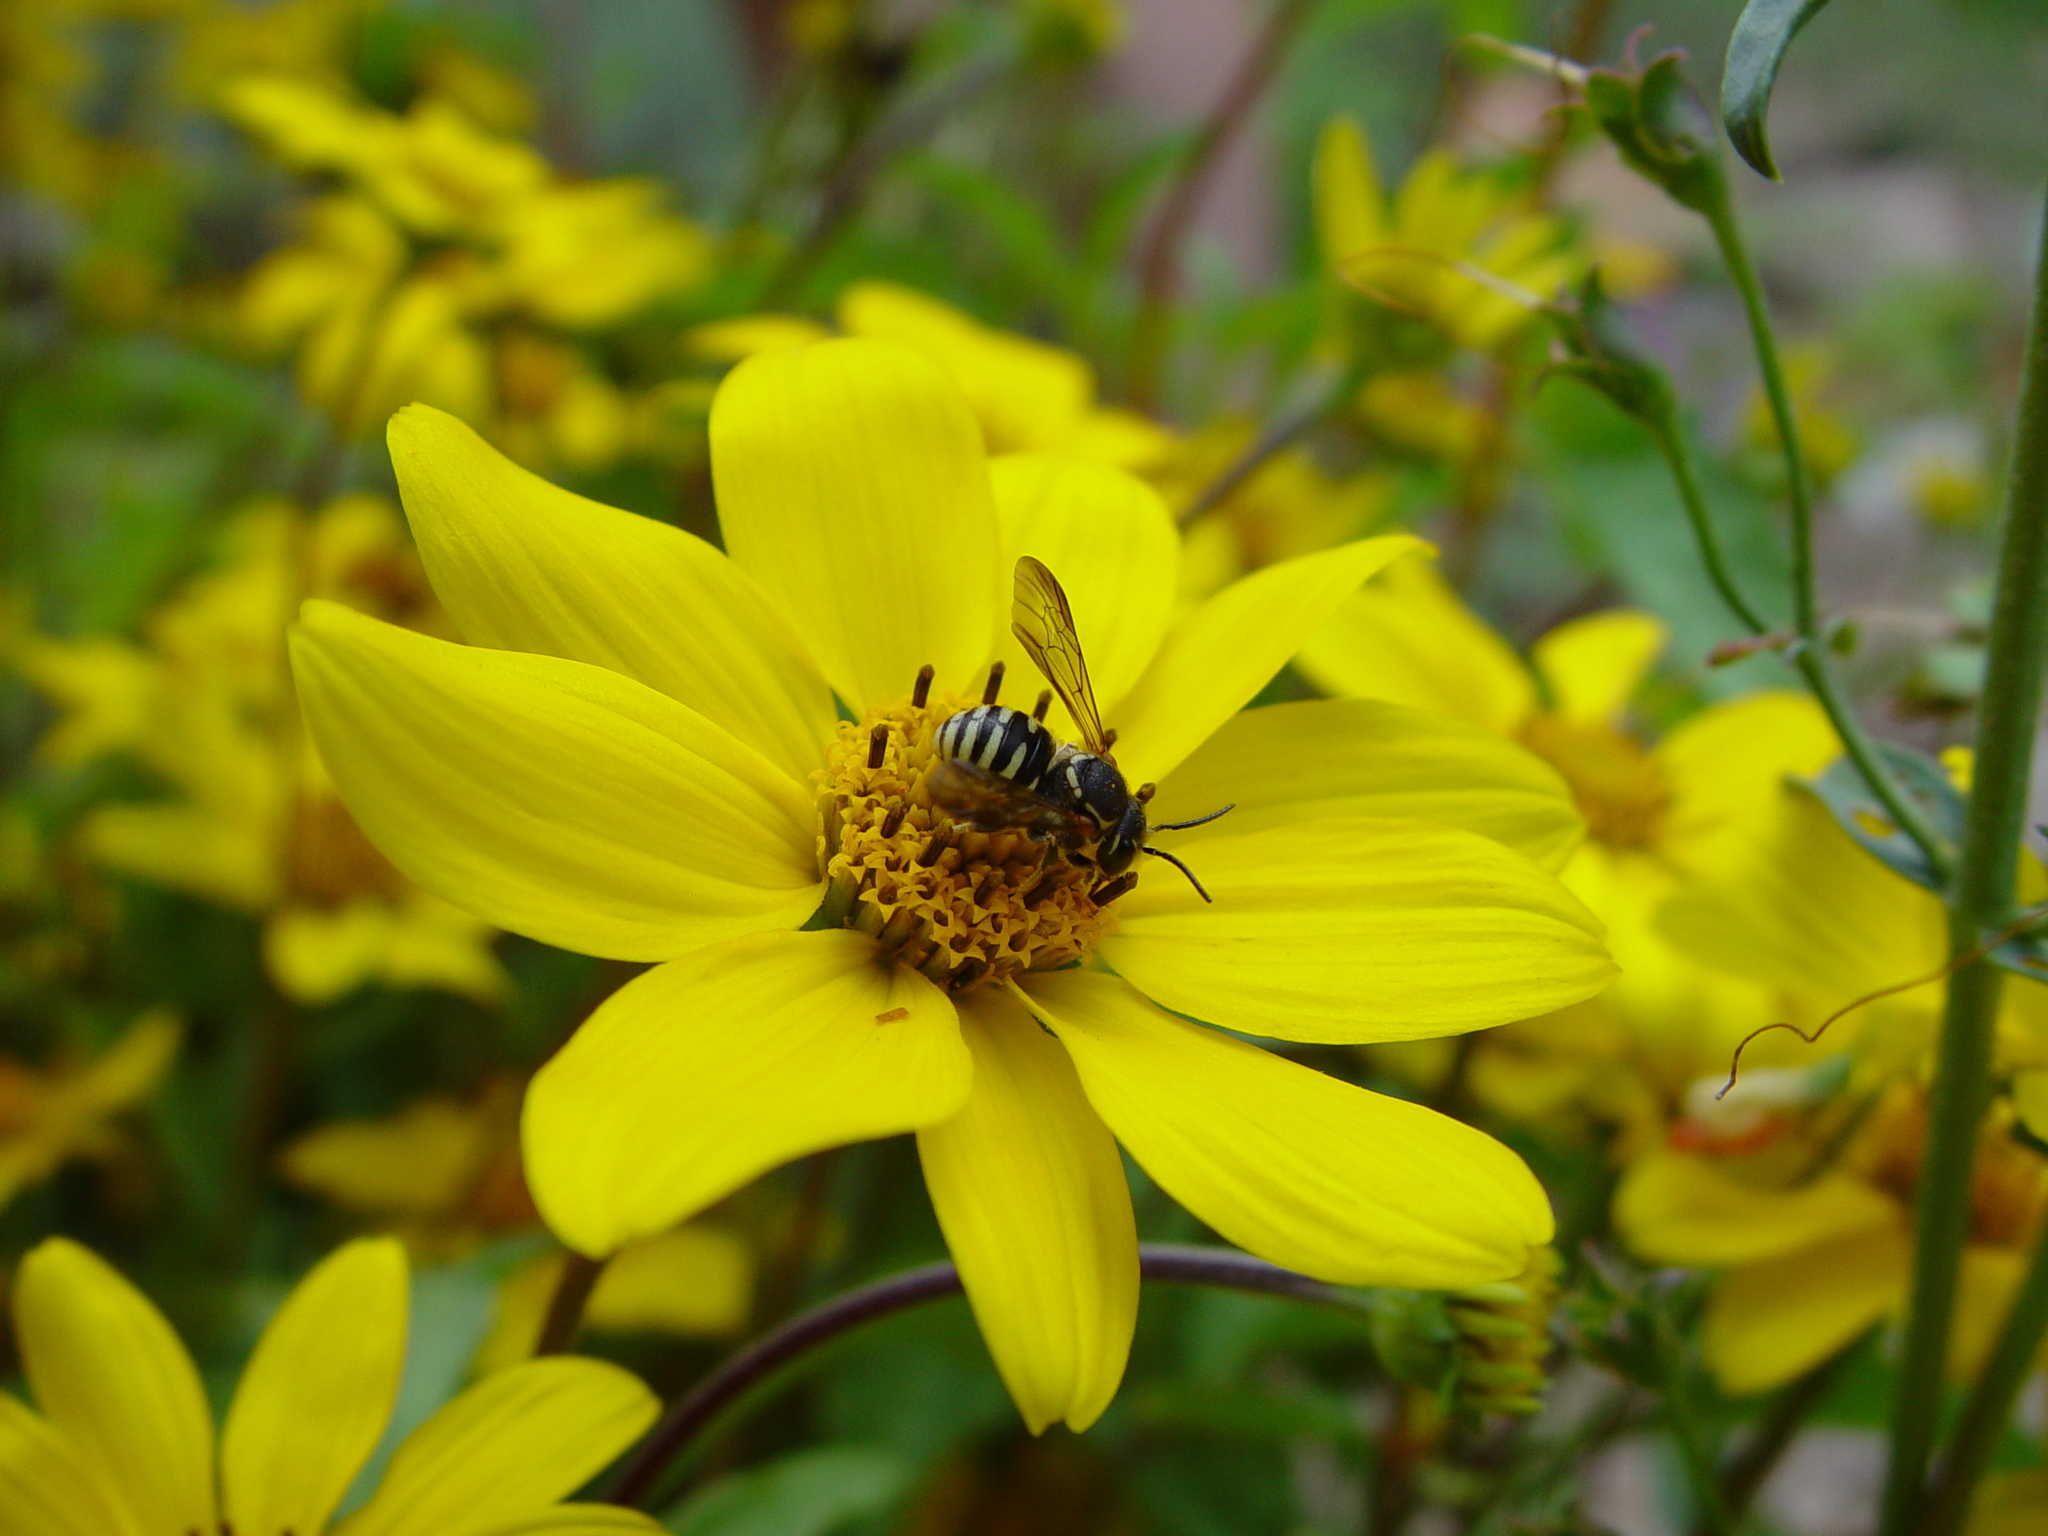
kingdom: Animalia
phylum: Arthropoda
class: Insecta
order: Hymenoptera
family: Megachilidae
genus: Paranthidium
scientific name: Paranthidium jugatorium
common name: Sunflower burrowing-resin bee
